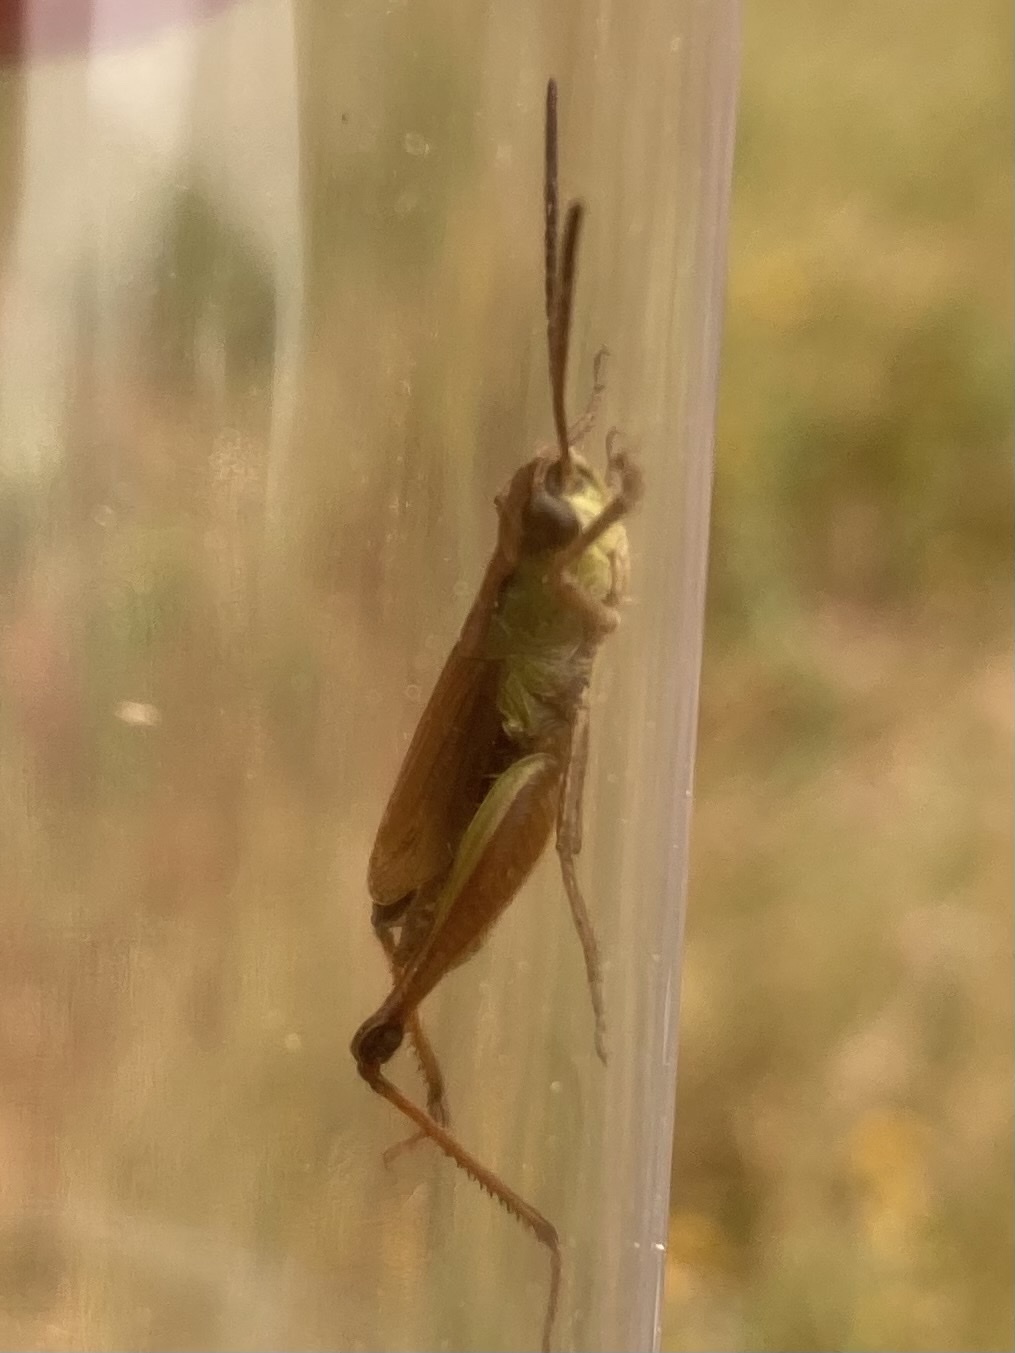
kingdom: Animalia
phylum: Arthropoda
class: Insecta
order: Orthoptera
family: Acrididae
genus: Pseudochorthippus
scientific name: Pseudochorthippus curtipennis
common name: Marsh meadow grasshopper
